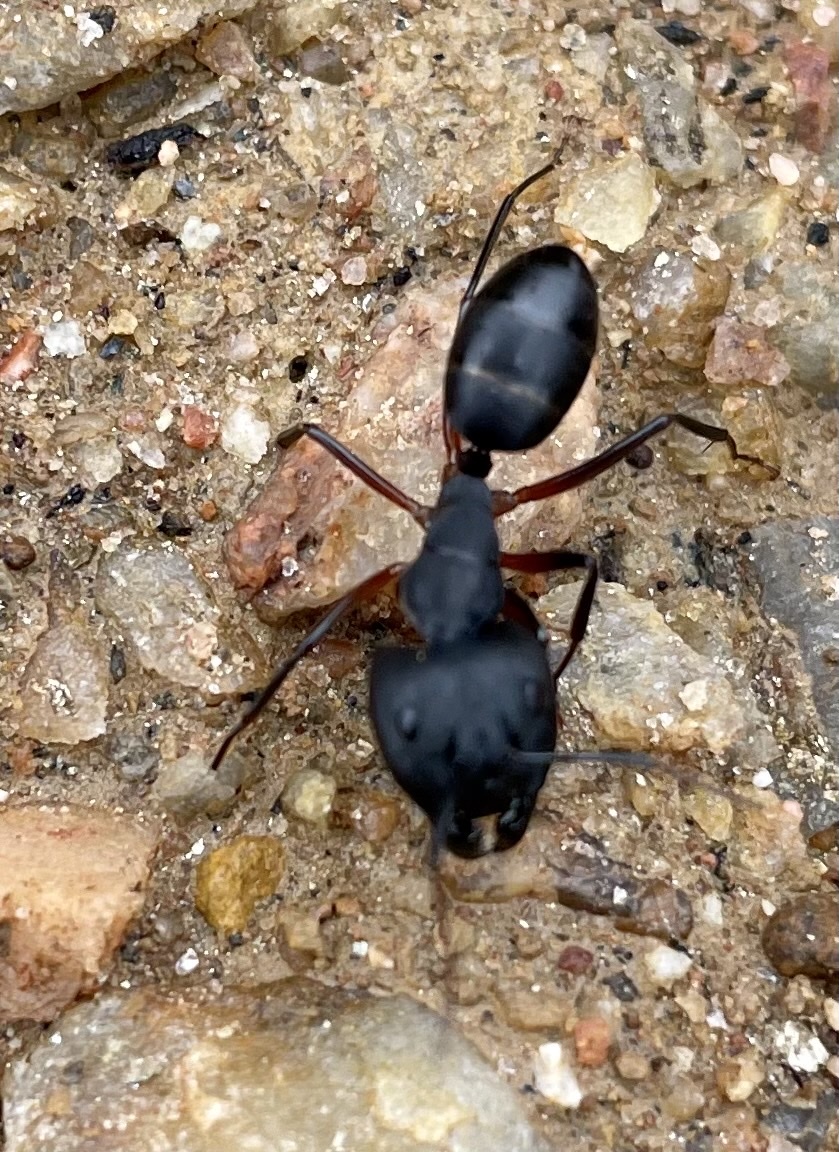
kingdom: Animalia
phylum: Arthropoda
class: Insecta
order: Hymenoptera
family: Formicidae
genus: Camponotus
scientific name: Camponotus compressus
